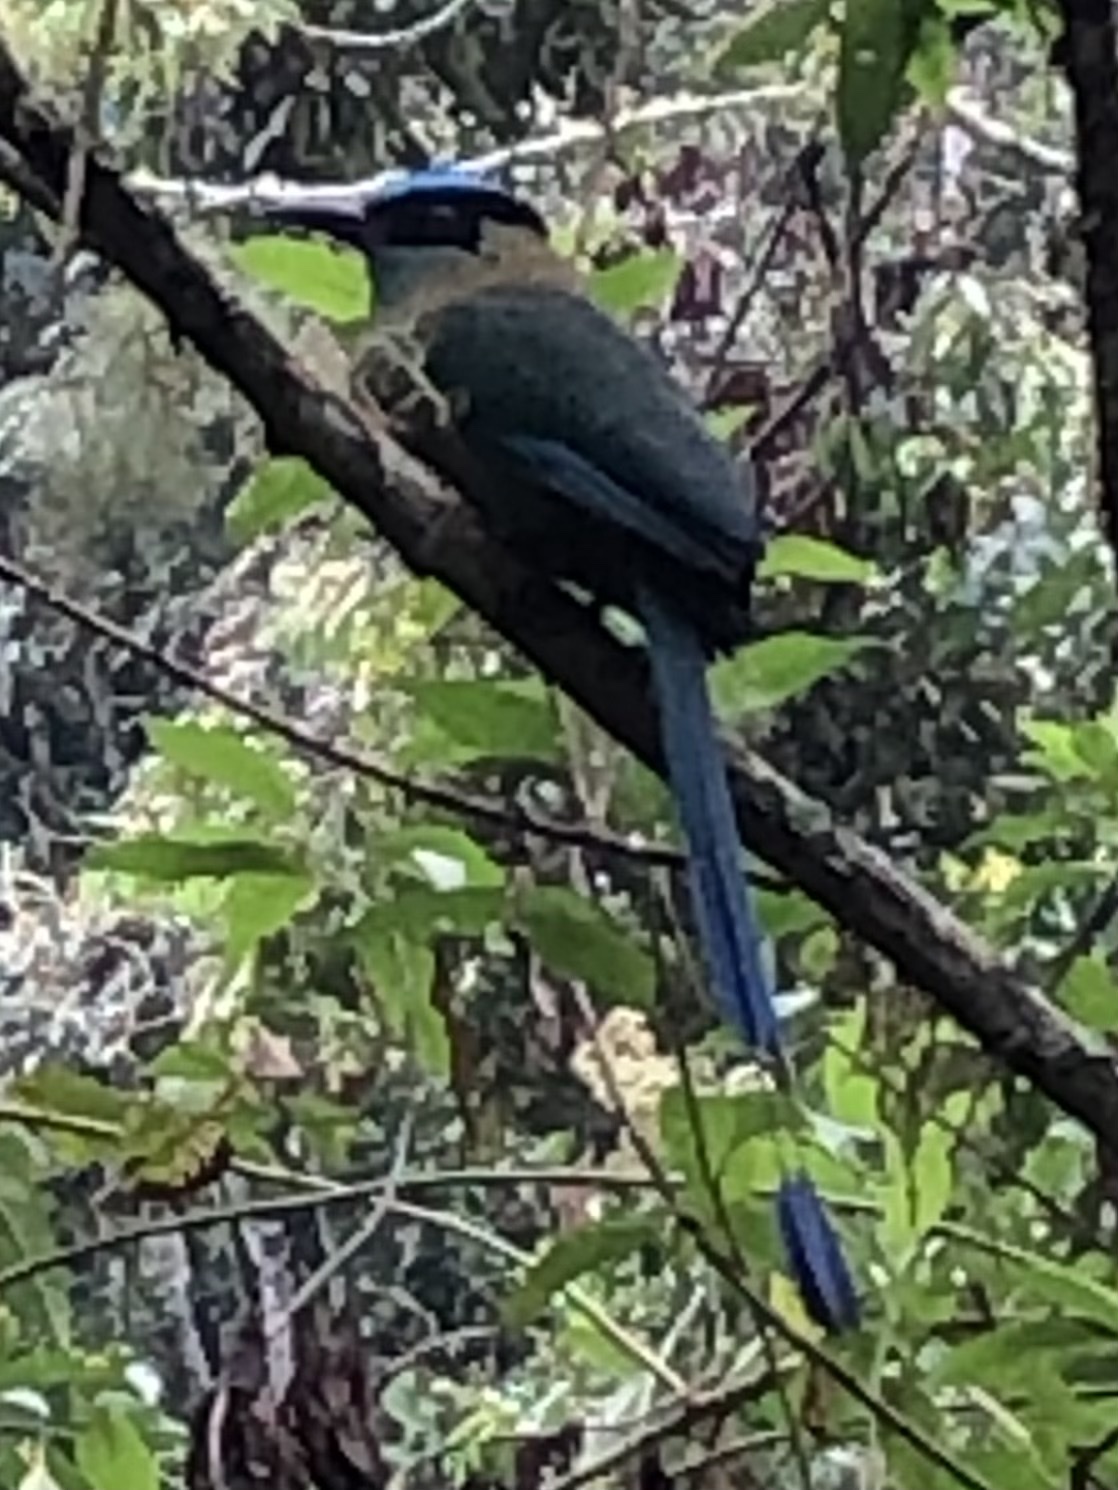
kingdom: Animalia
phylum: Chordata
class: Aves
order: Coraciiformes
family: Momotidae
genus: Momotus
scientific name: Momotus aequatorialis
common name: Andean motmot
